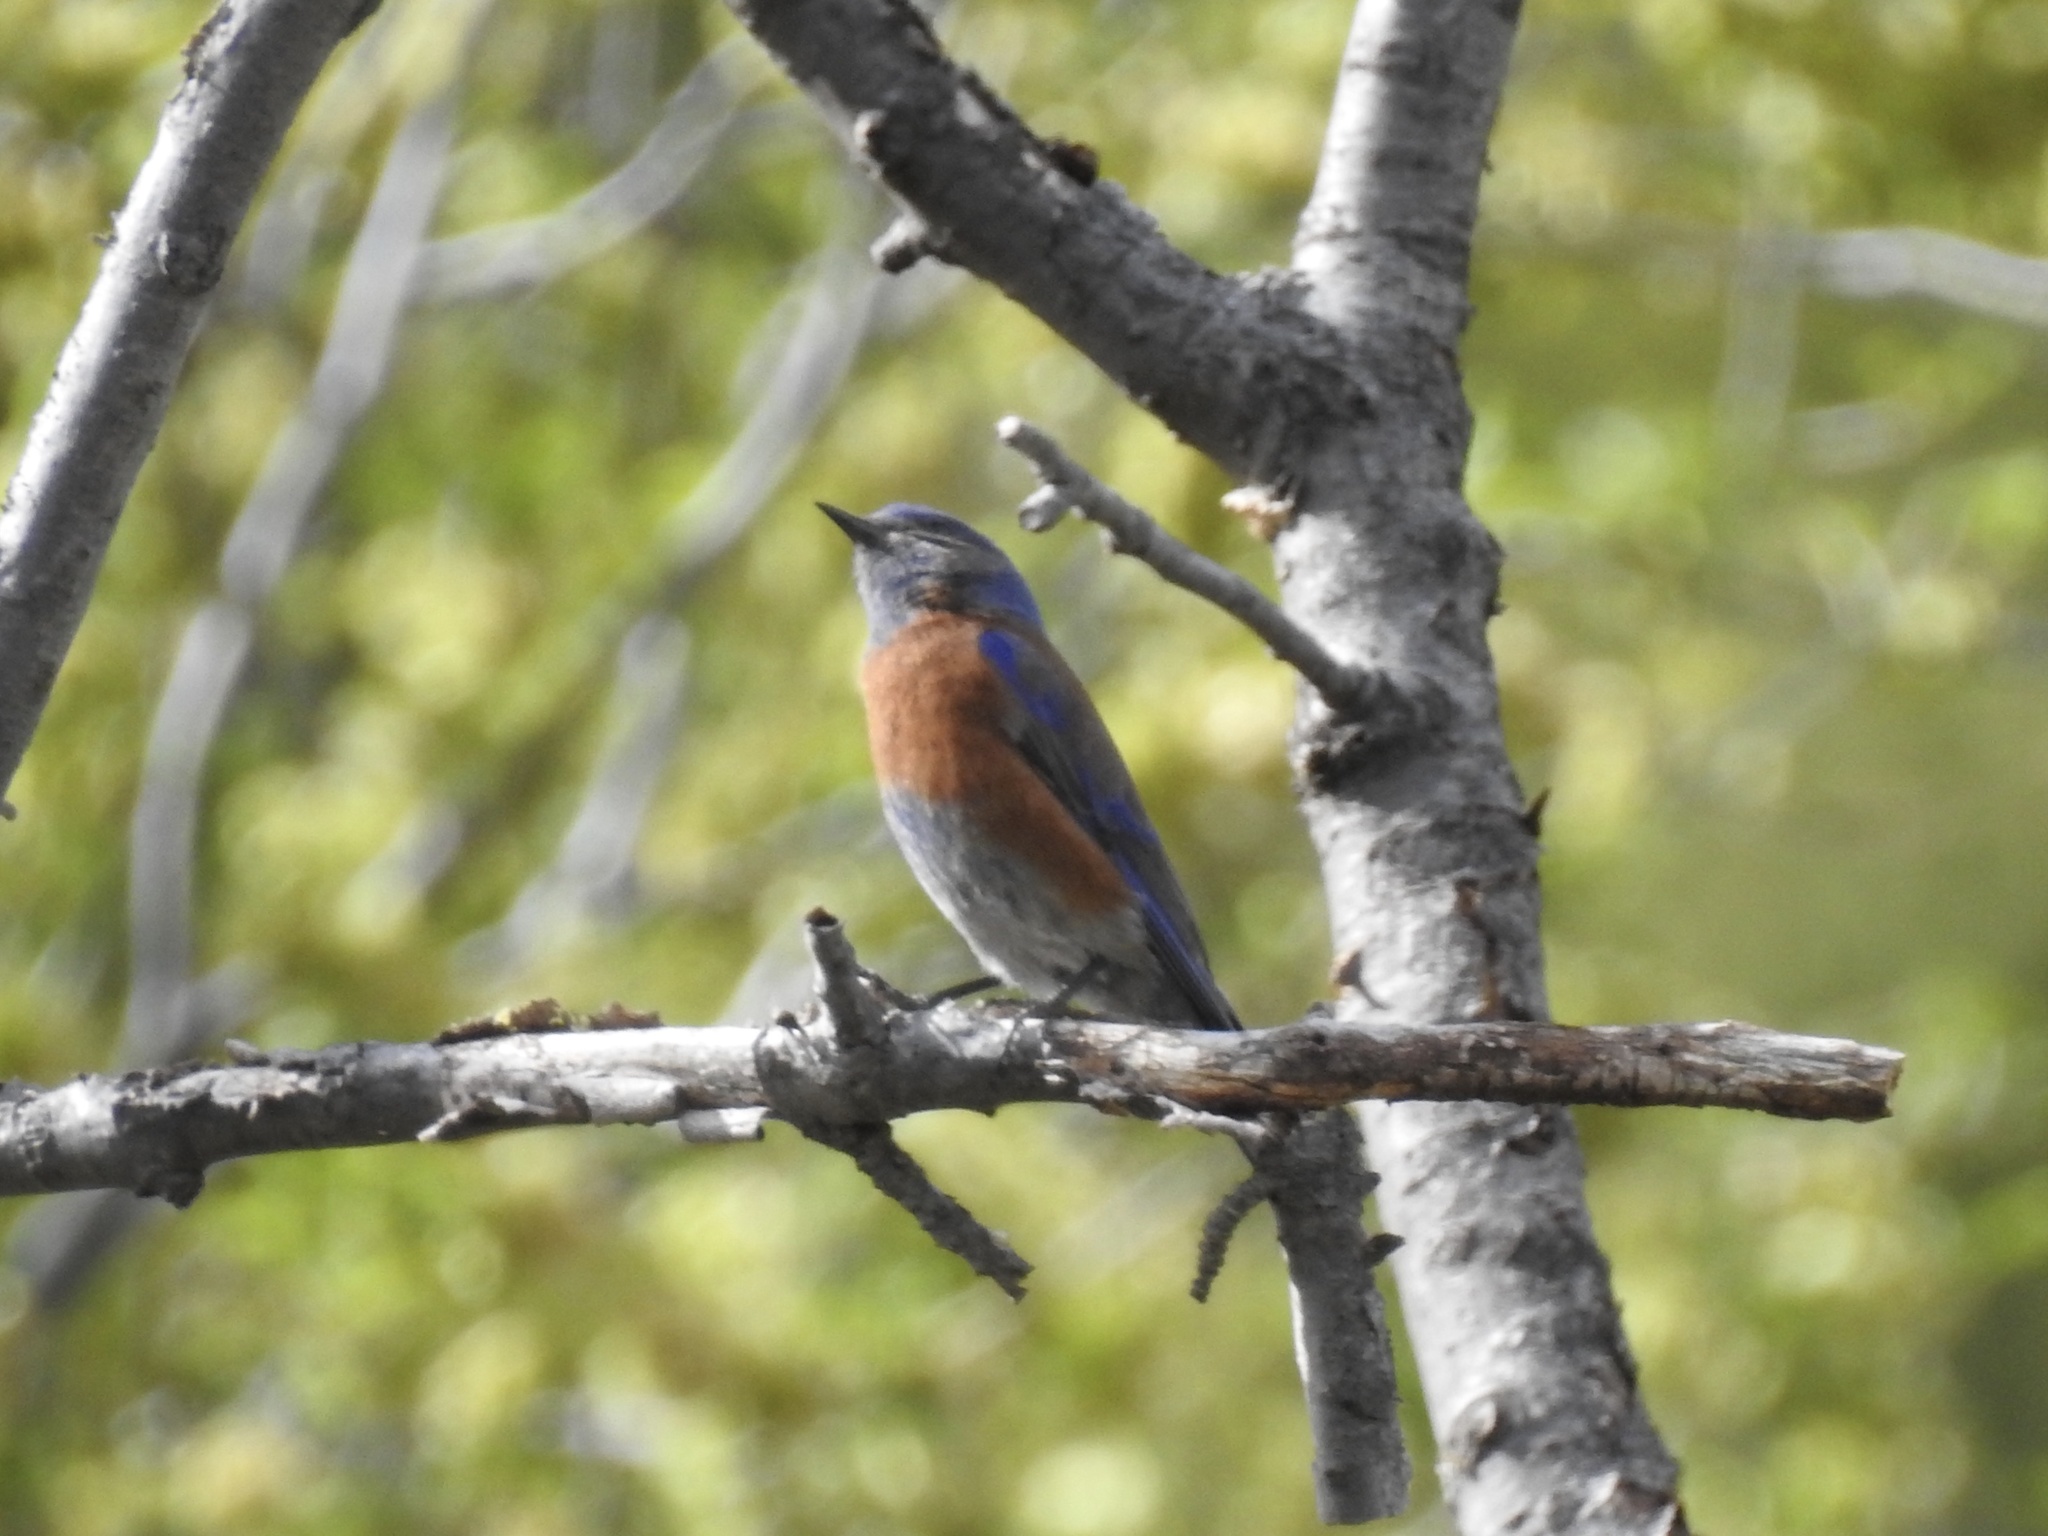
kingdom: Animalia
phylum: Chordata
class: Aves
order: Passeriformes
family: Turdidae
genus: Sialia
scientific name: Sialia mexicana
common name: Western bluebird
